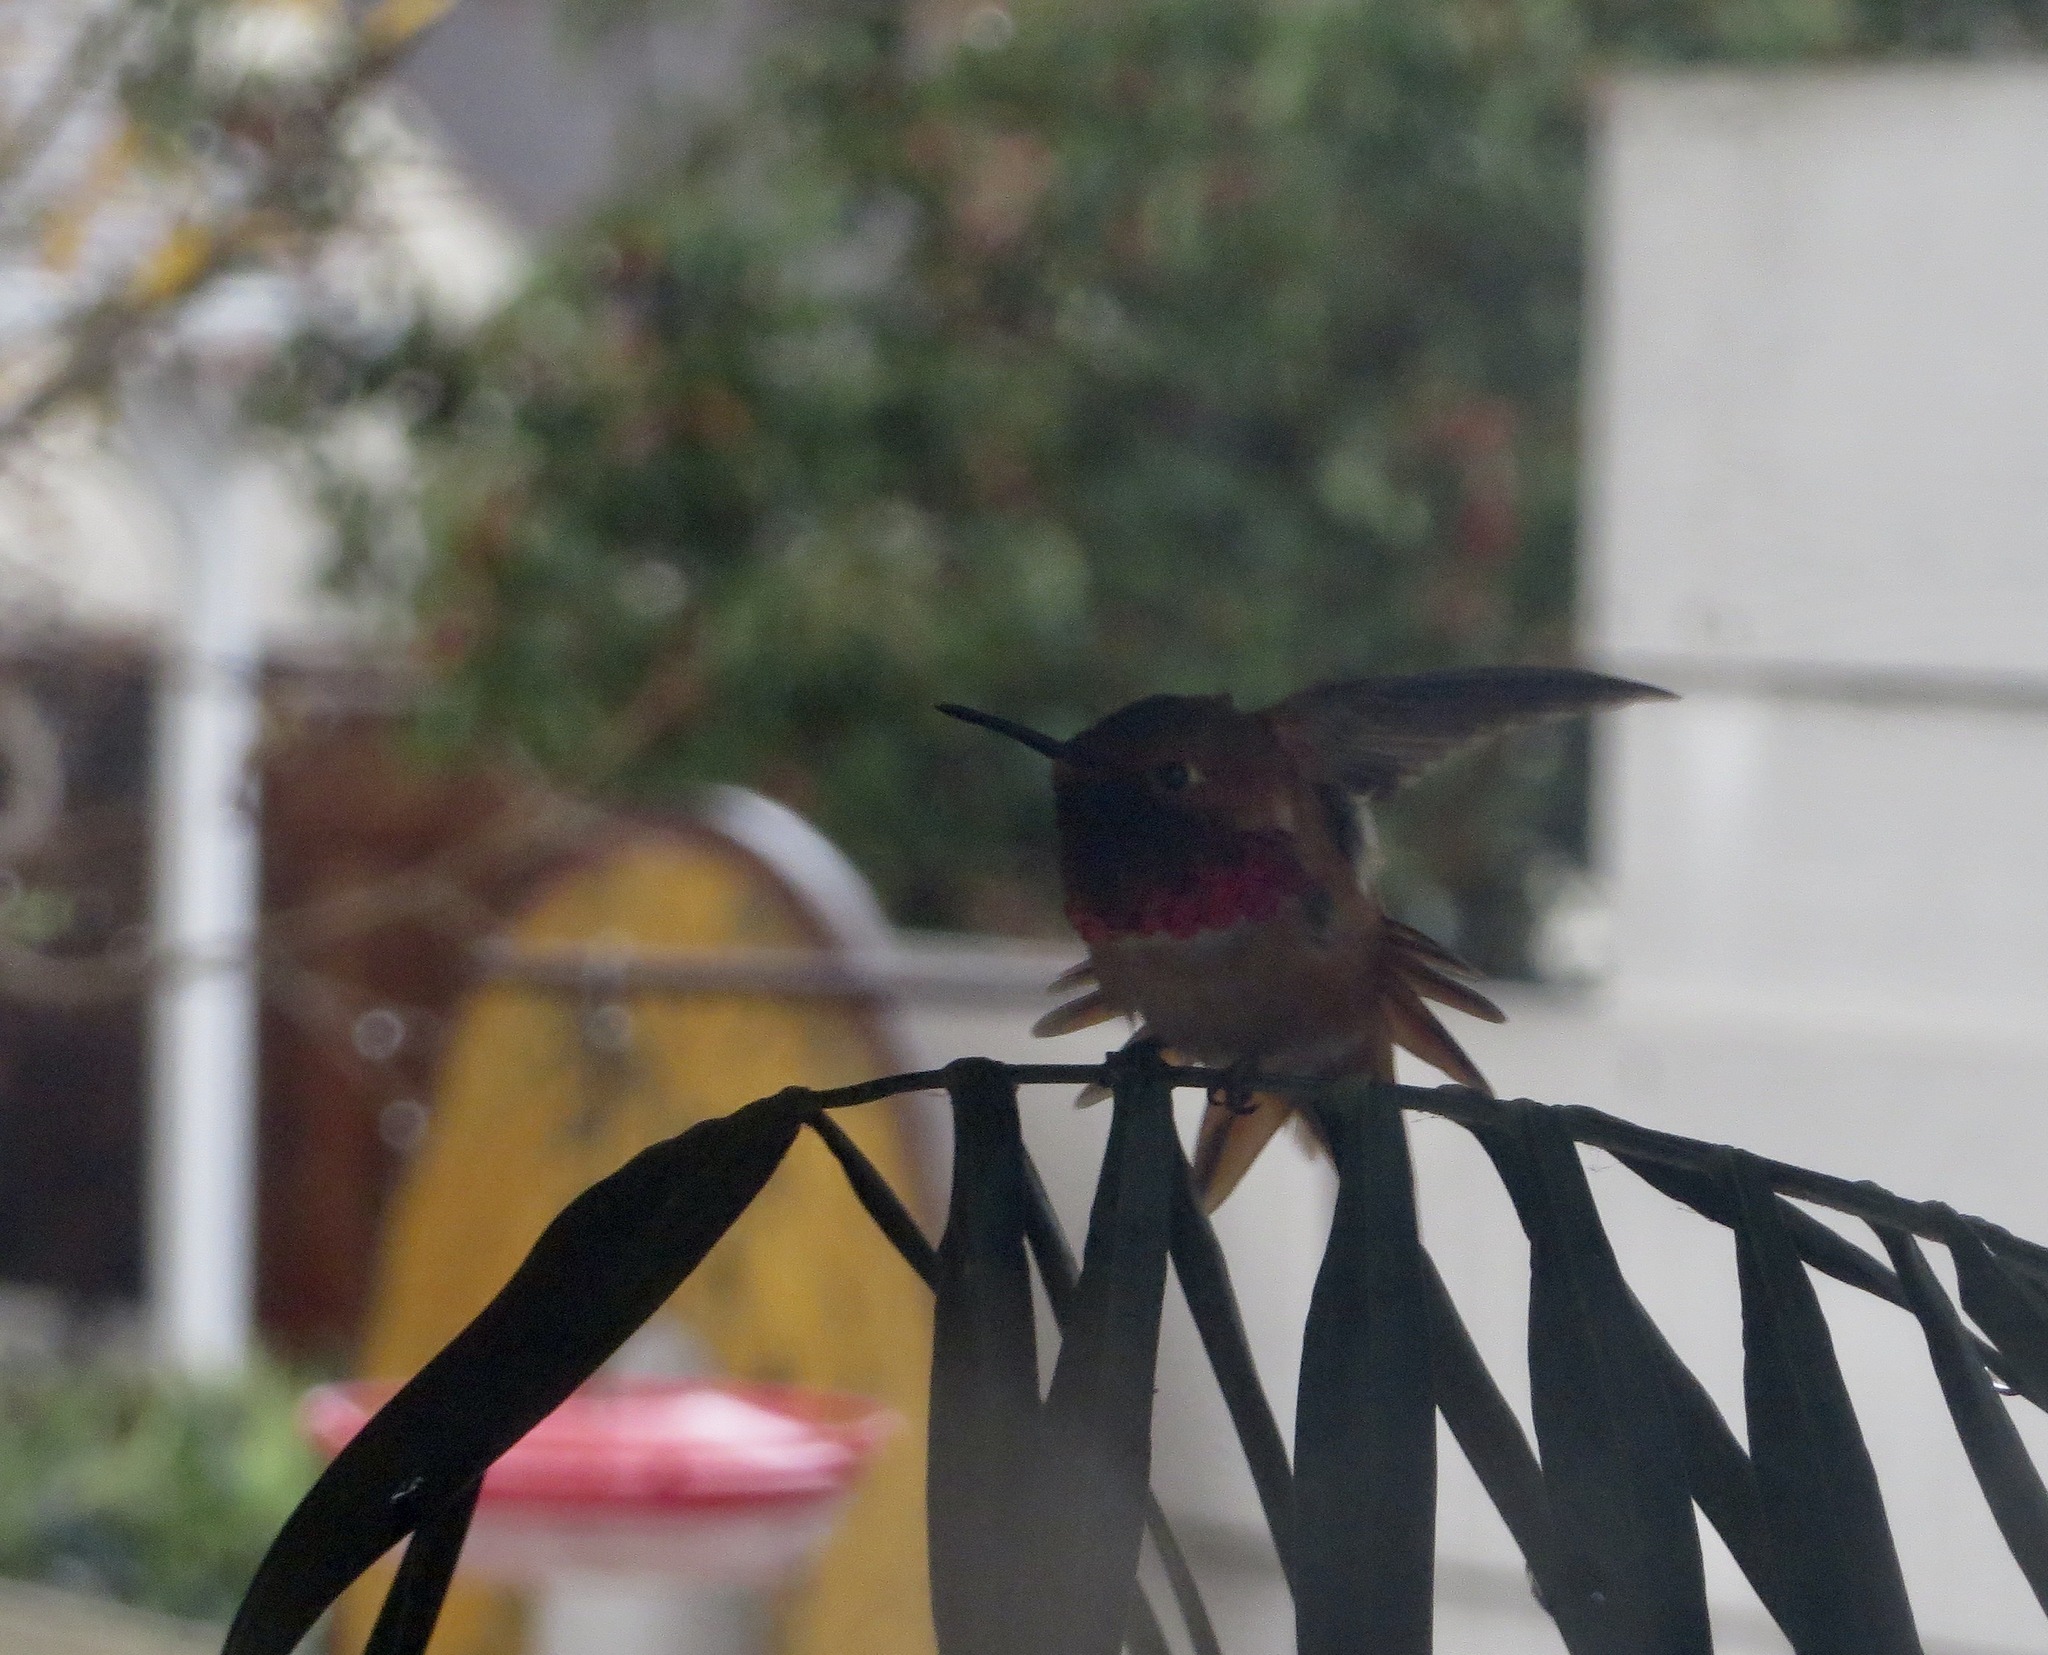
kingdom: Animalia
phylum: Chordata
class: Aves
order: Apodiformes
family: Trochilidae
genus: Selasphorus
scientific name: Selasphorus sasin
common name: Allen's hummingbird
